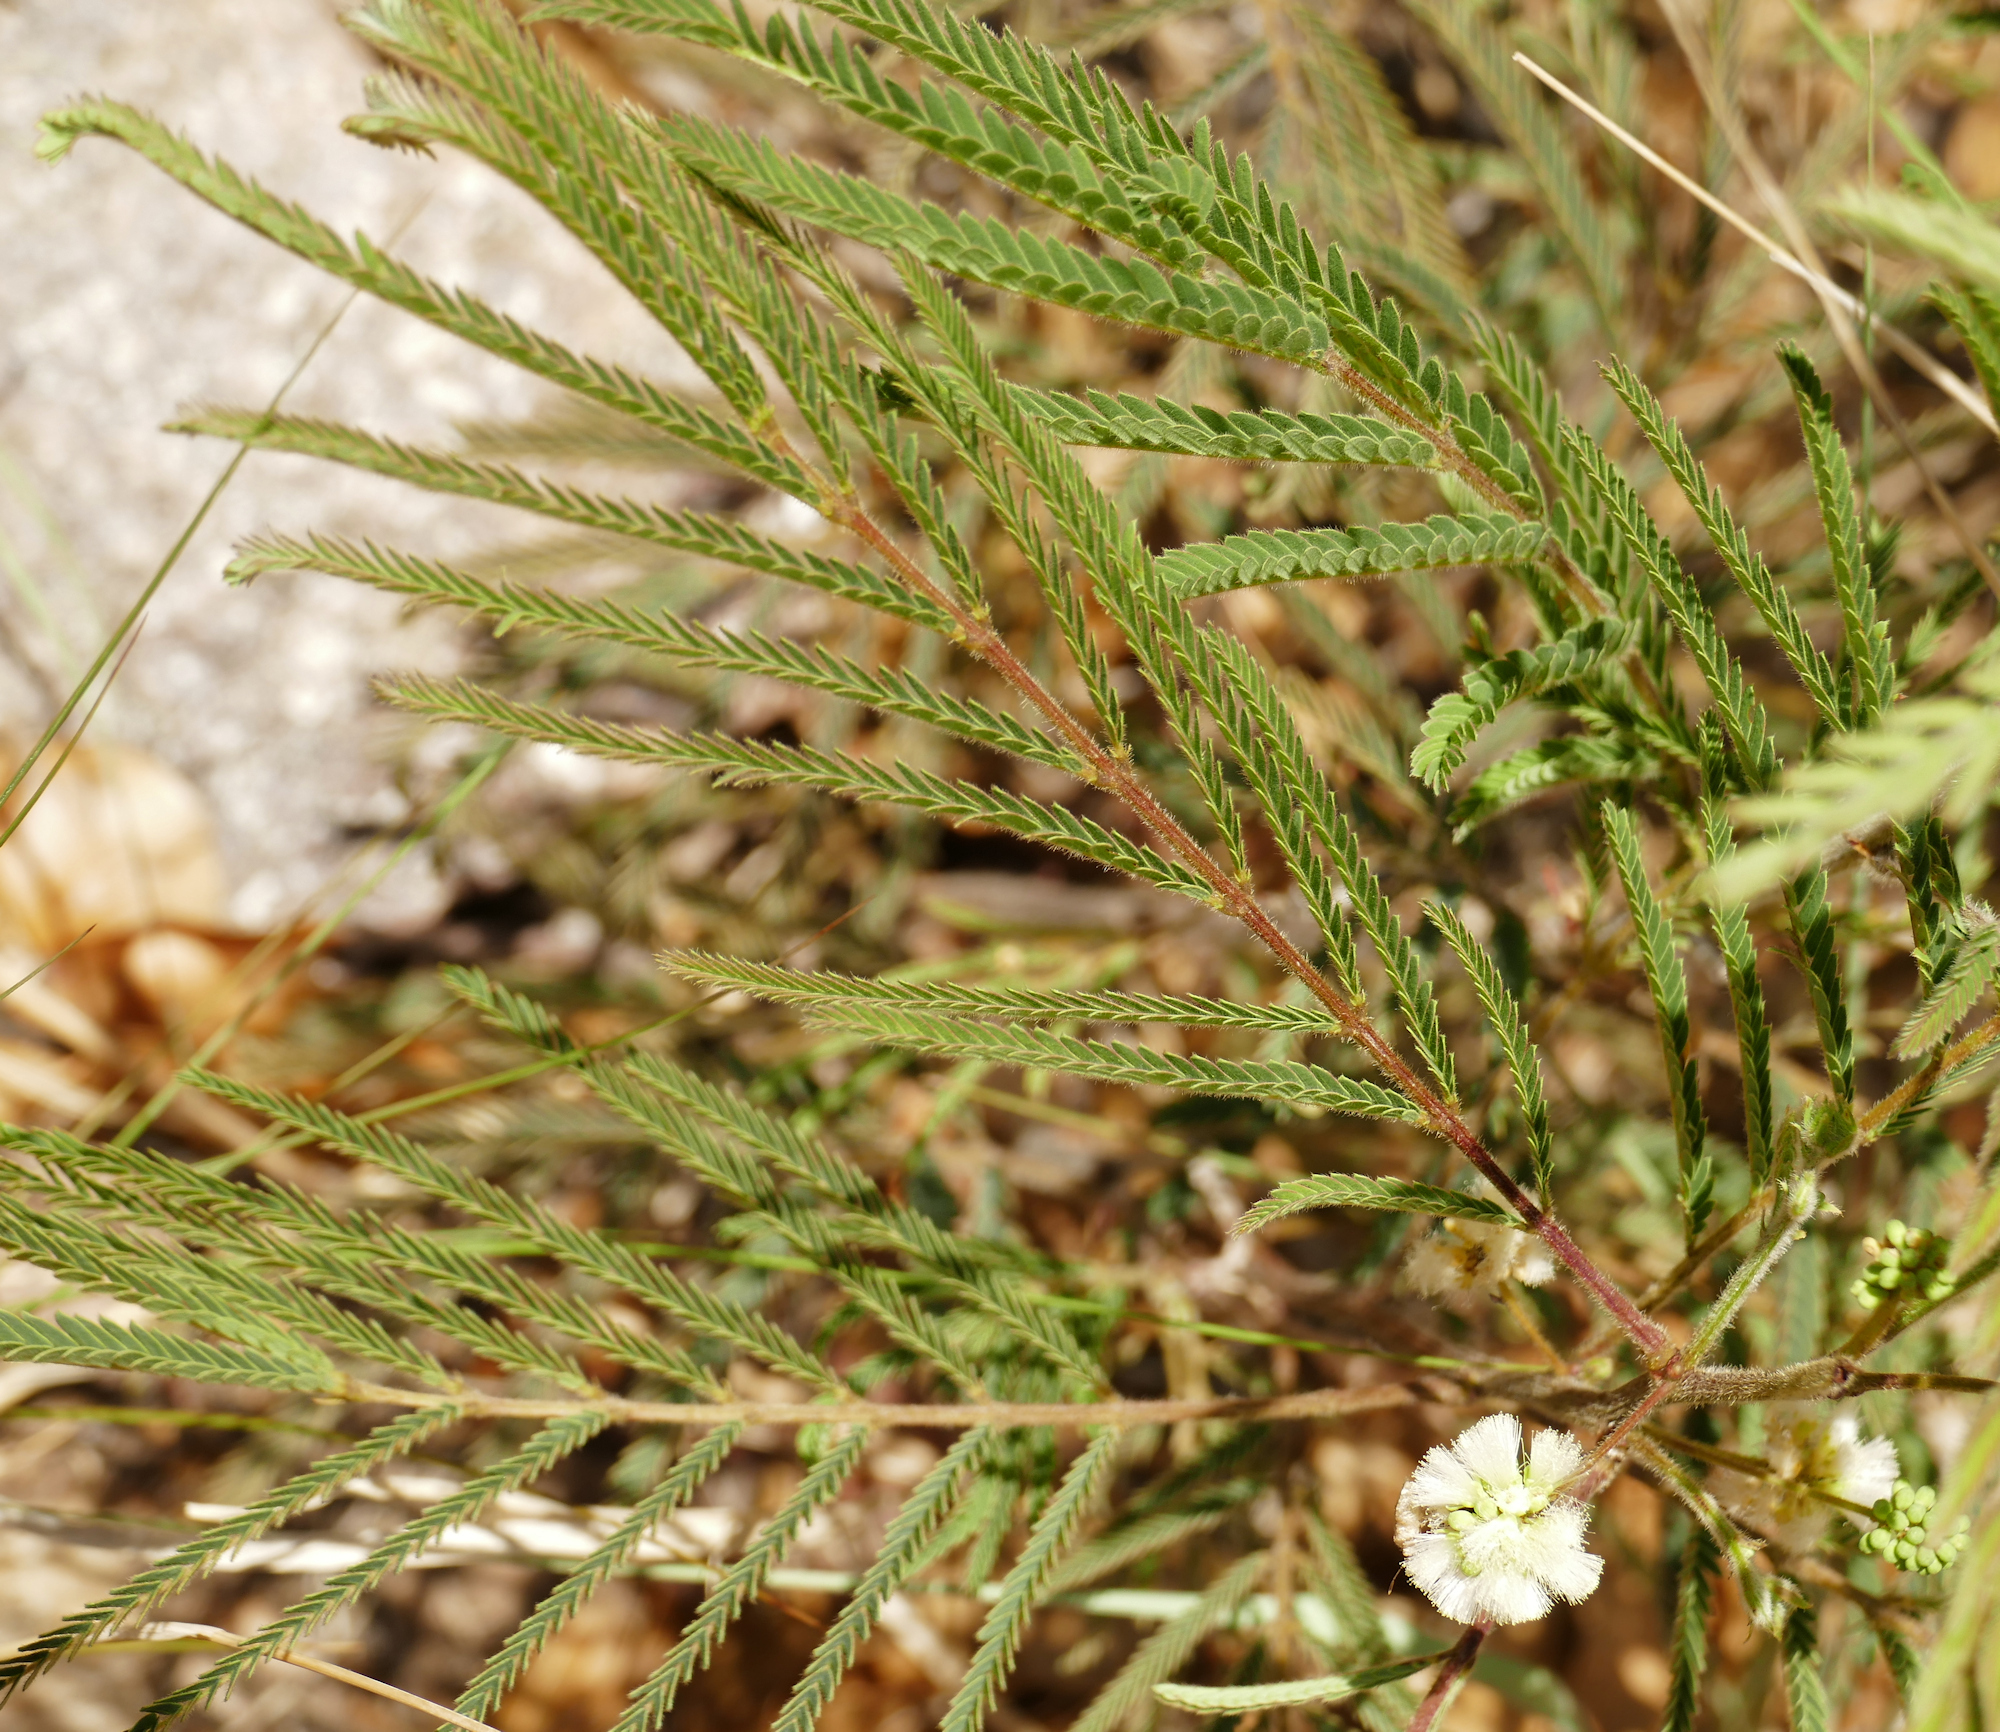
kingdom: Plantae
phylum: Tracheophyta
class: Magnoliopsida
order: Fabales
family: Fabaceae
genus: Acaciella
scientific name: Acaciella angustissima
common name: Prairie acacia
